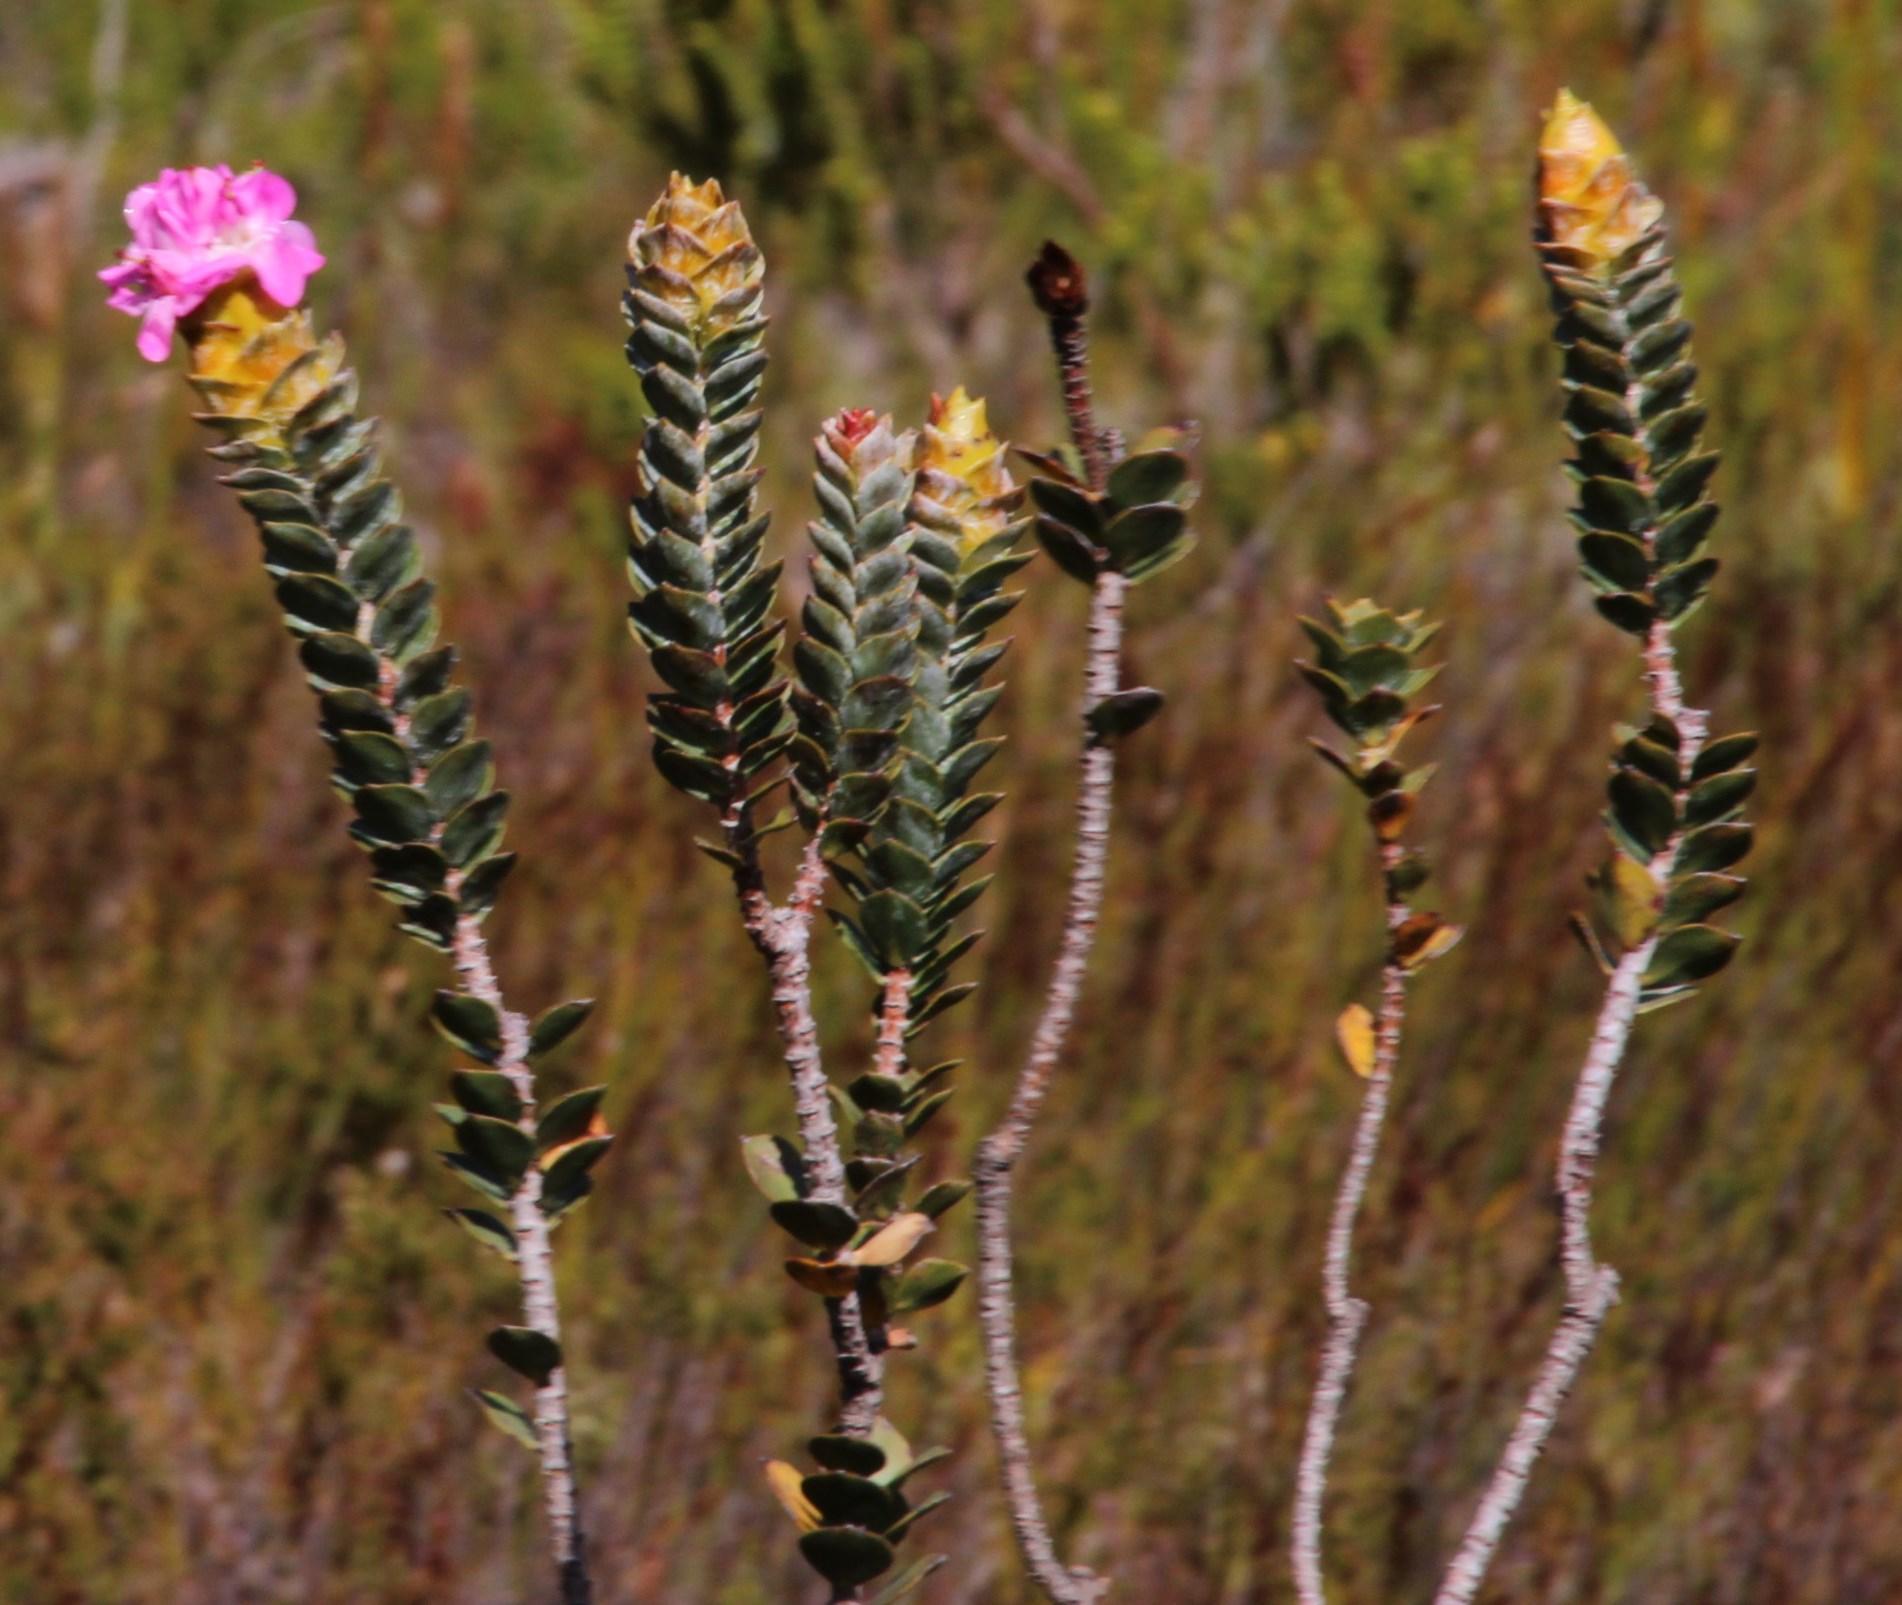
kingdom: Plantae
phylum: Tracheophyta
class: Magnoliopsida
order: Myrtales
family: Penaeaceae
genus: Saltera
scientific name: Saltera sarcocolla
